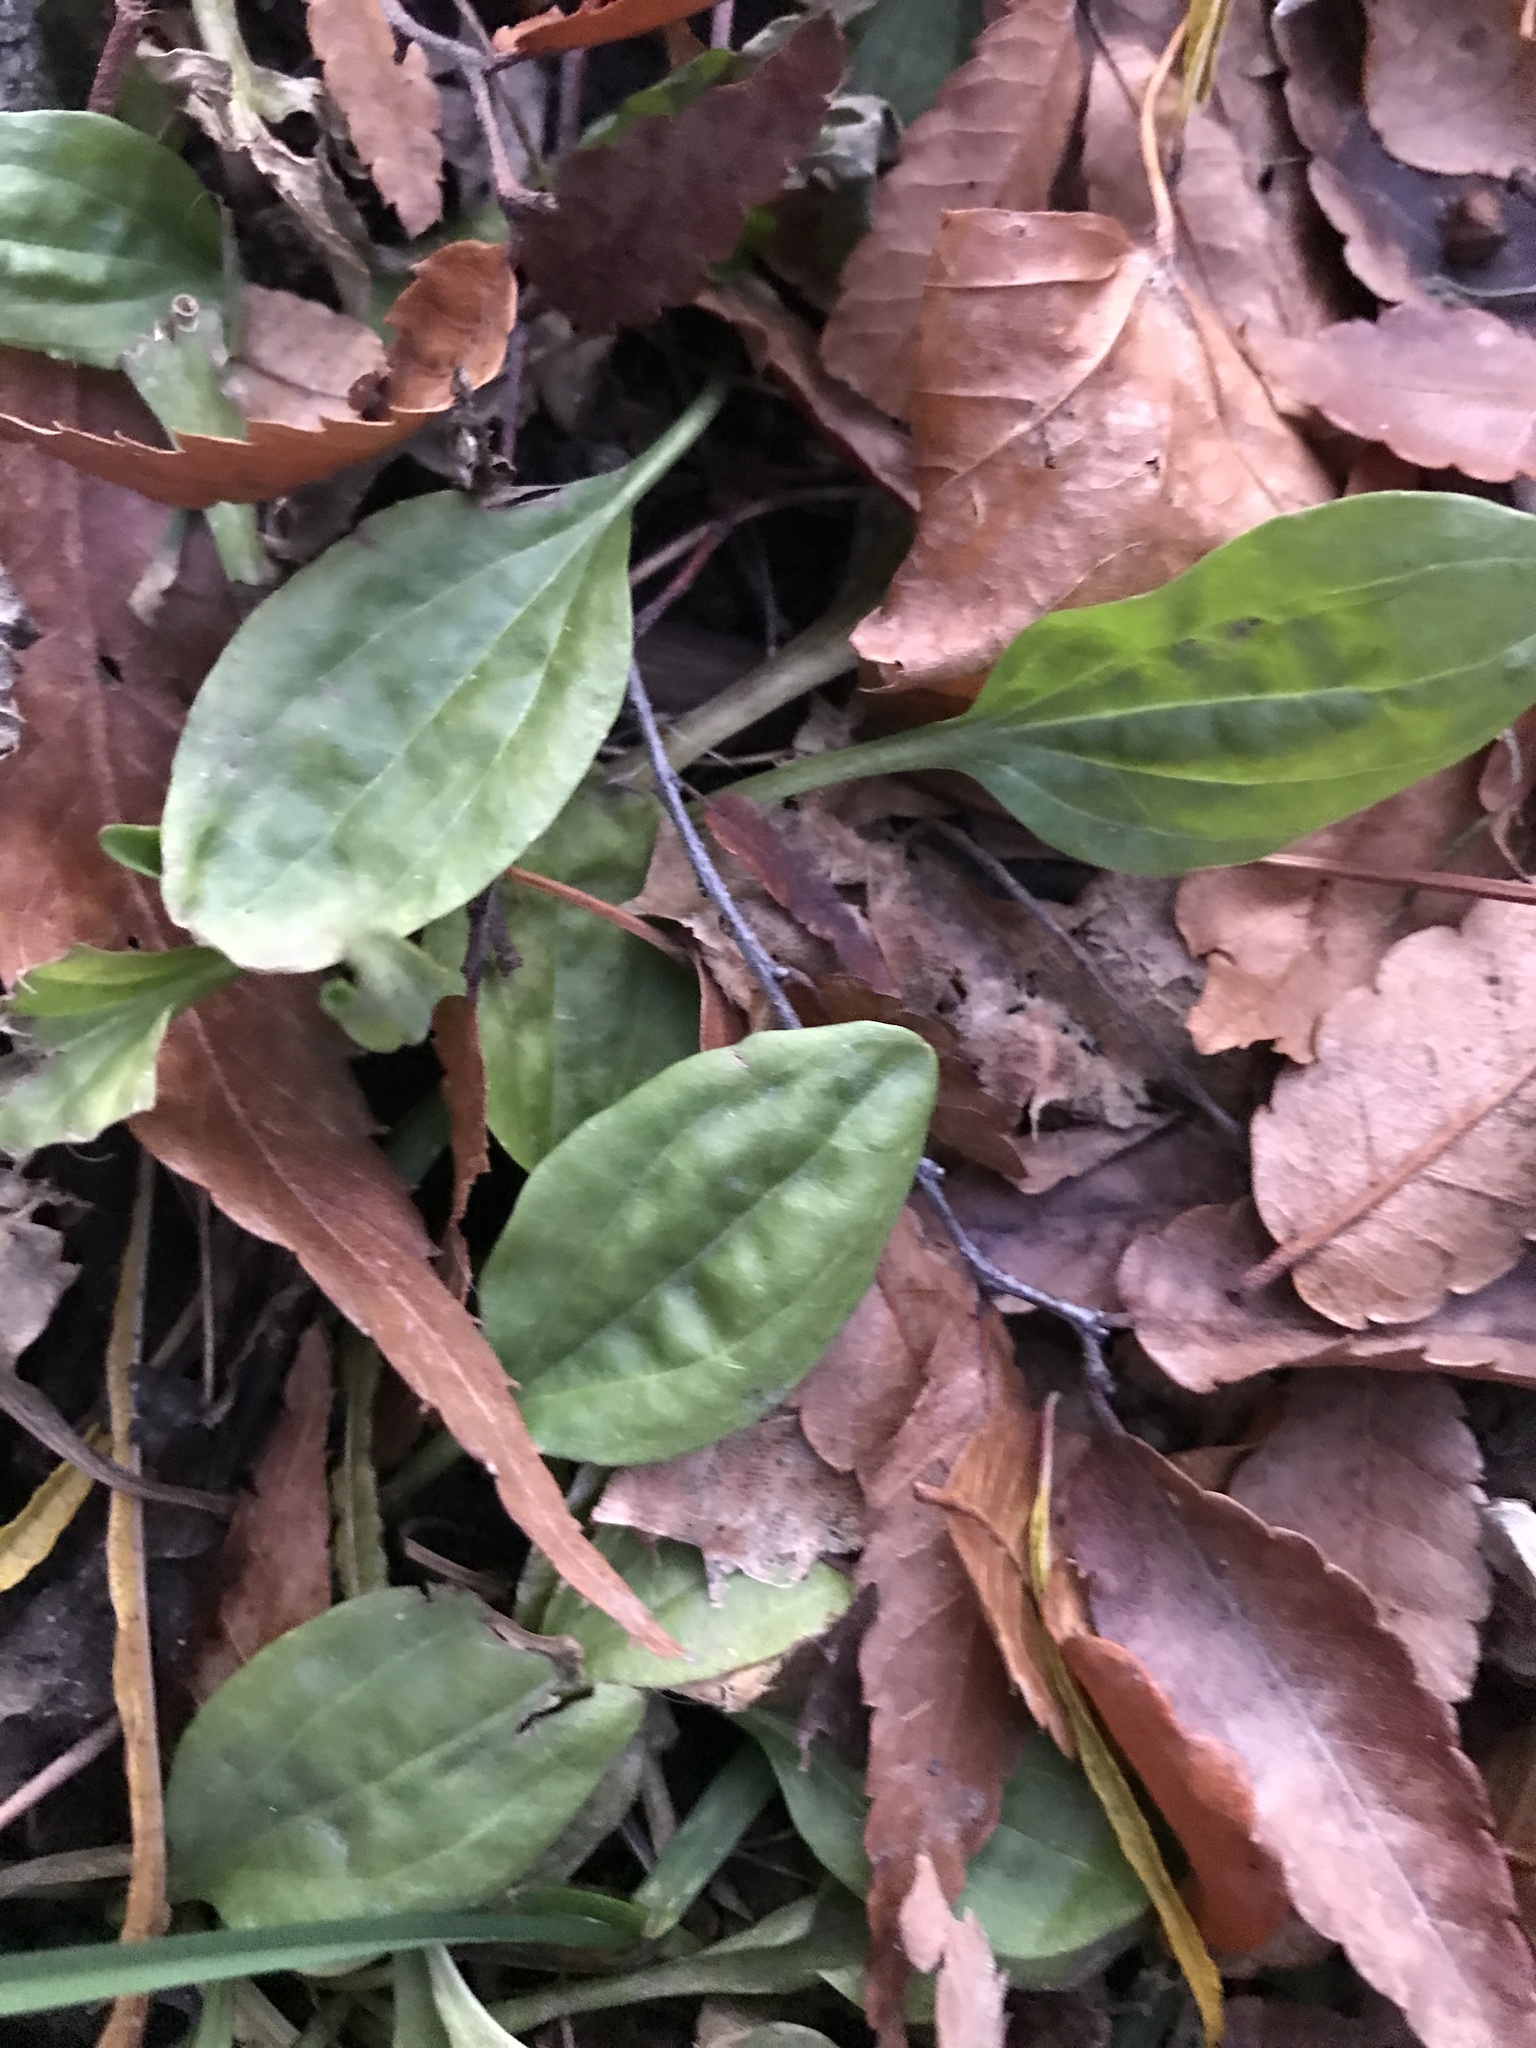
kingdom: Plantae
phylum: Tracheophyta
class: Magnoliopsida
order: Lamiales
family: Plantaginaceae
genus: Plantago
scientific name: Plantago major
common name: Common plantain
